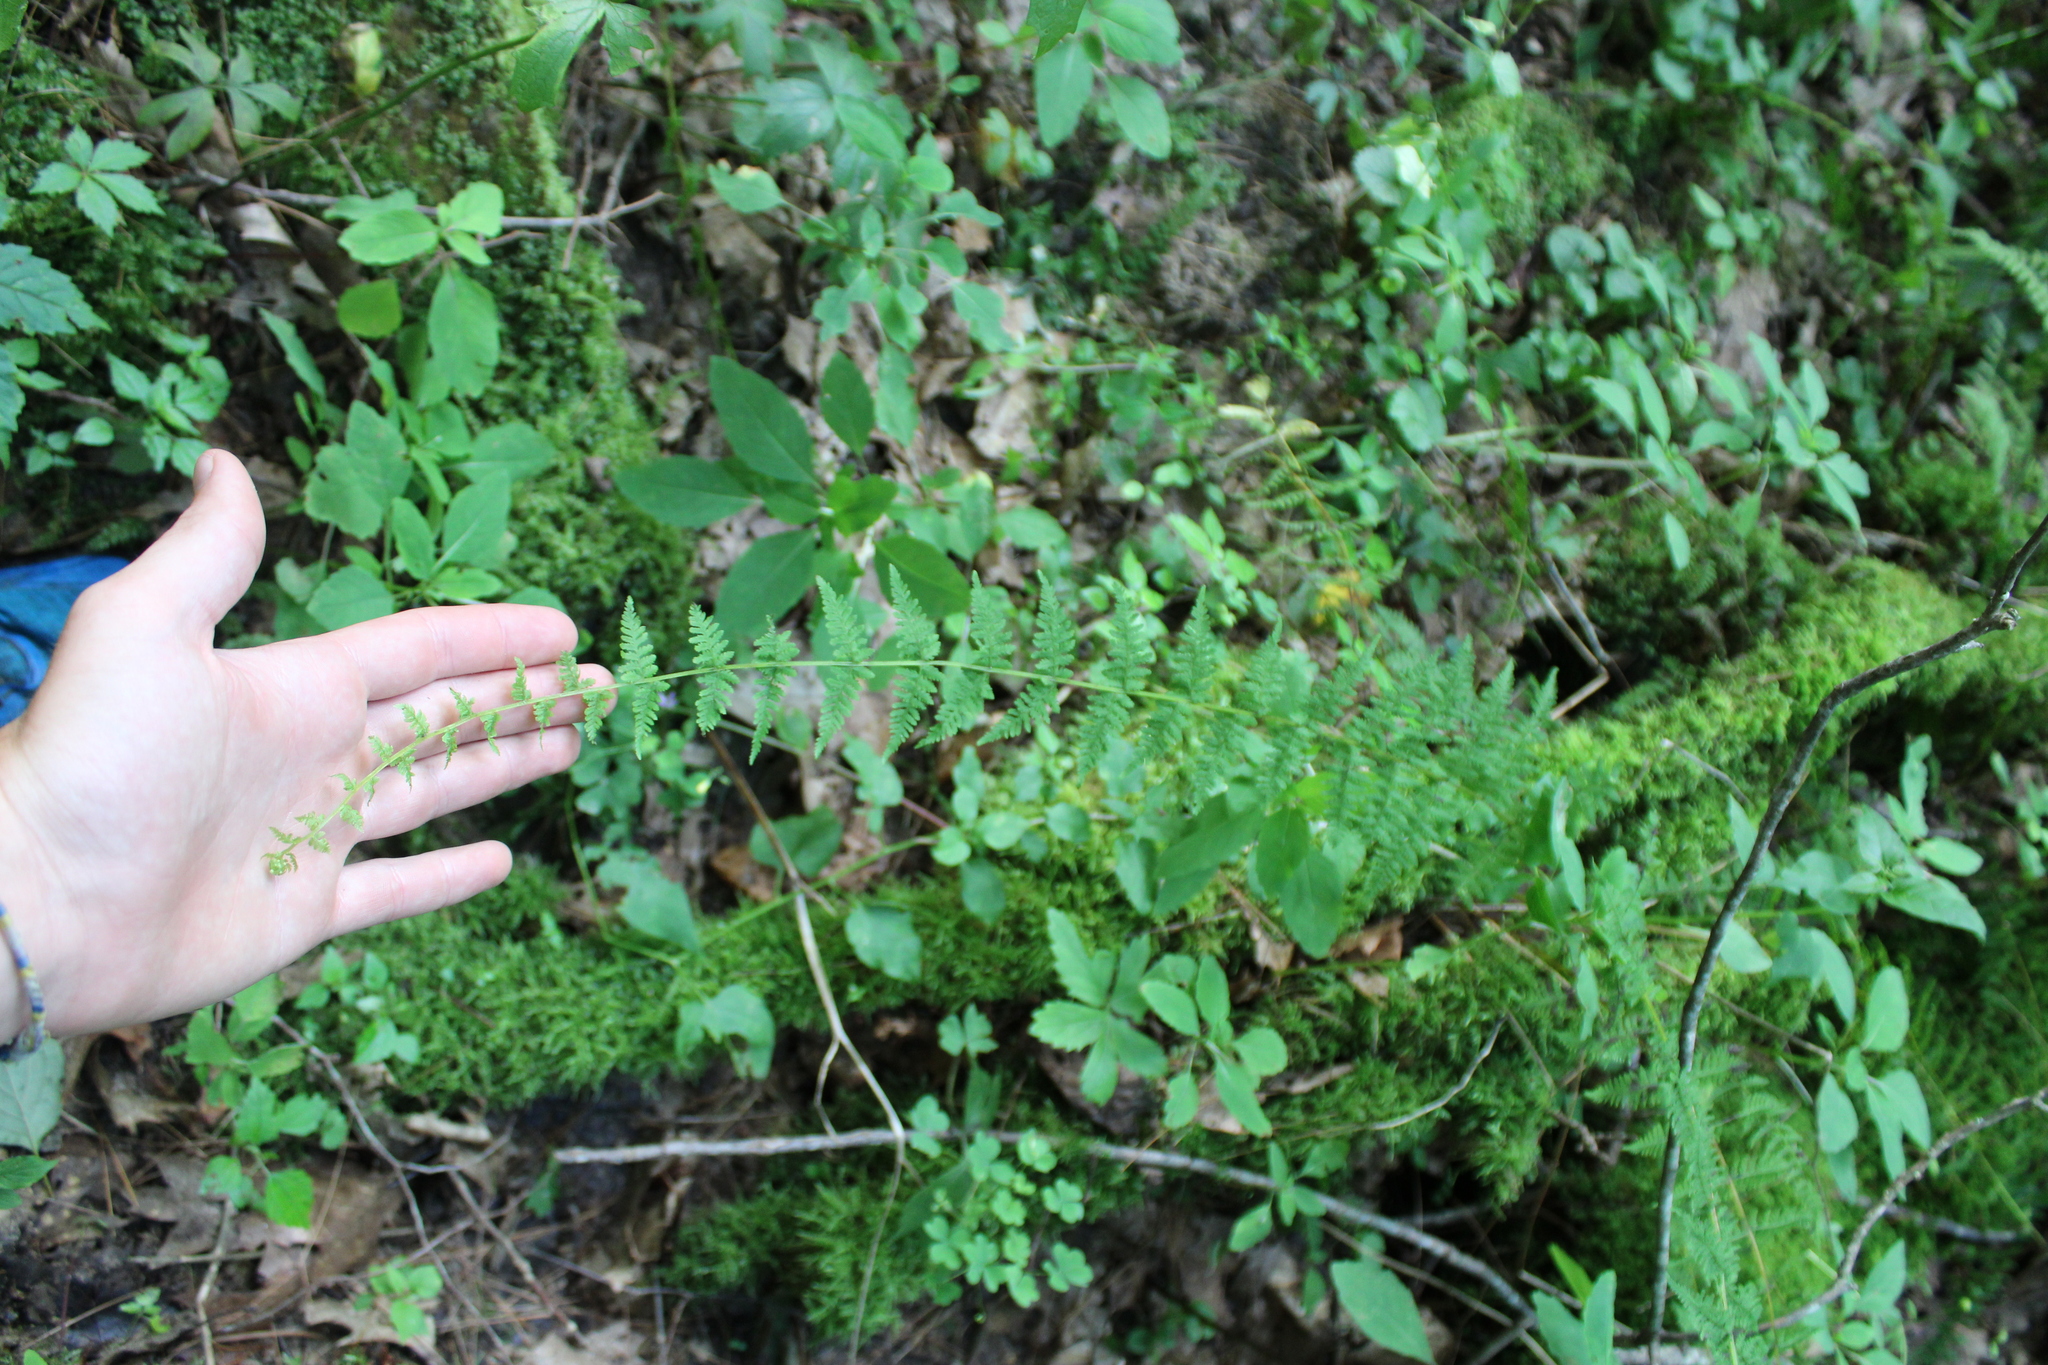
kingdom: Plantae
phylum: Tracheophyta
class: Polypodiopsida
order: Polypodiales
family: Cystopteridaceae
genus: Cystopteris
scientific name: Cystopteris bulbifera
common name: Bulblet bladder fern
